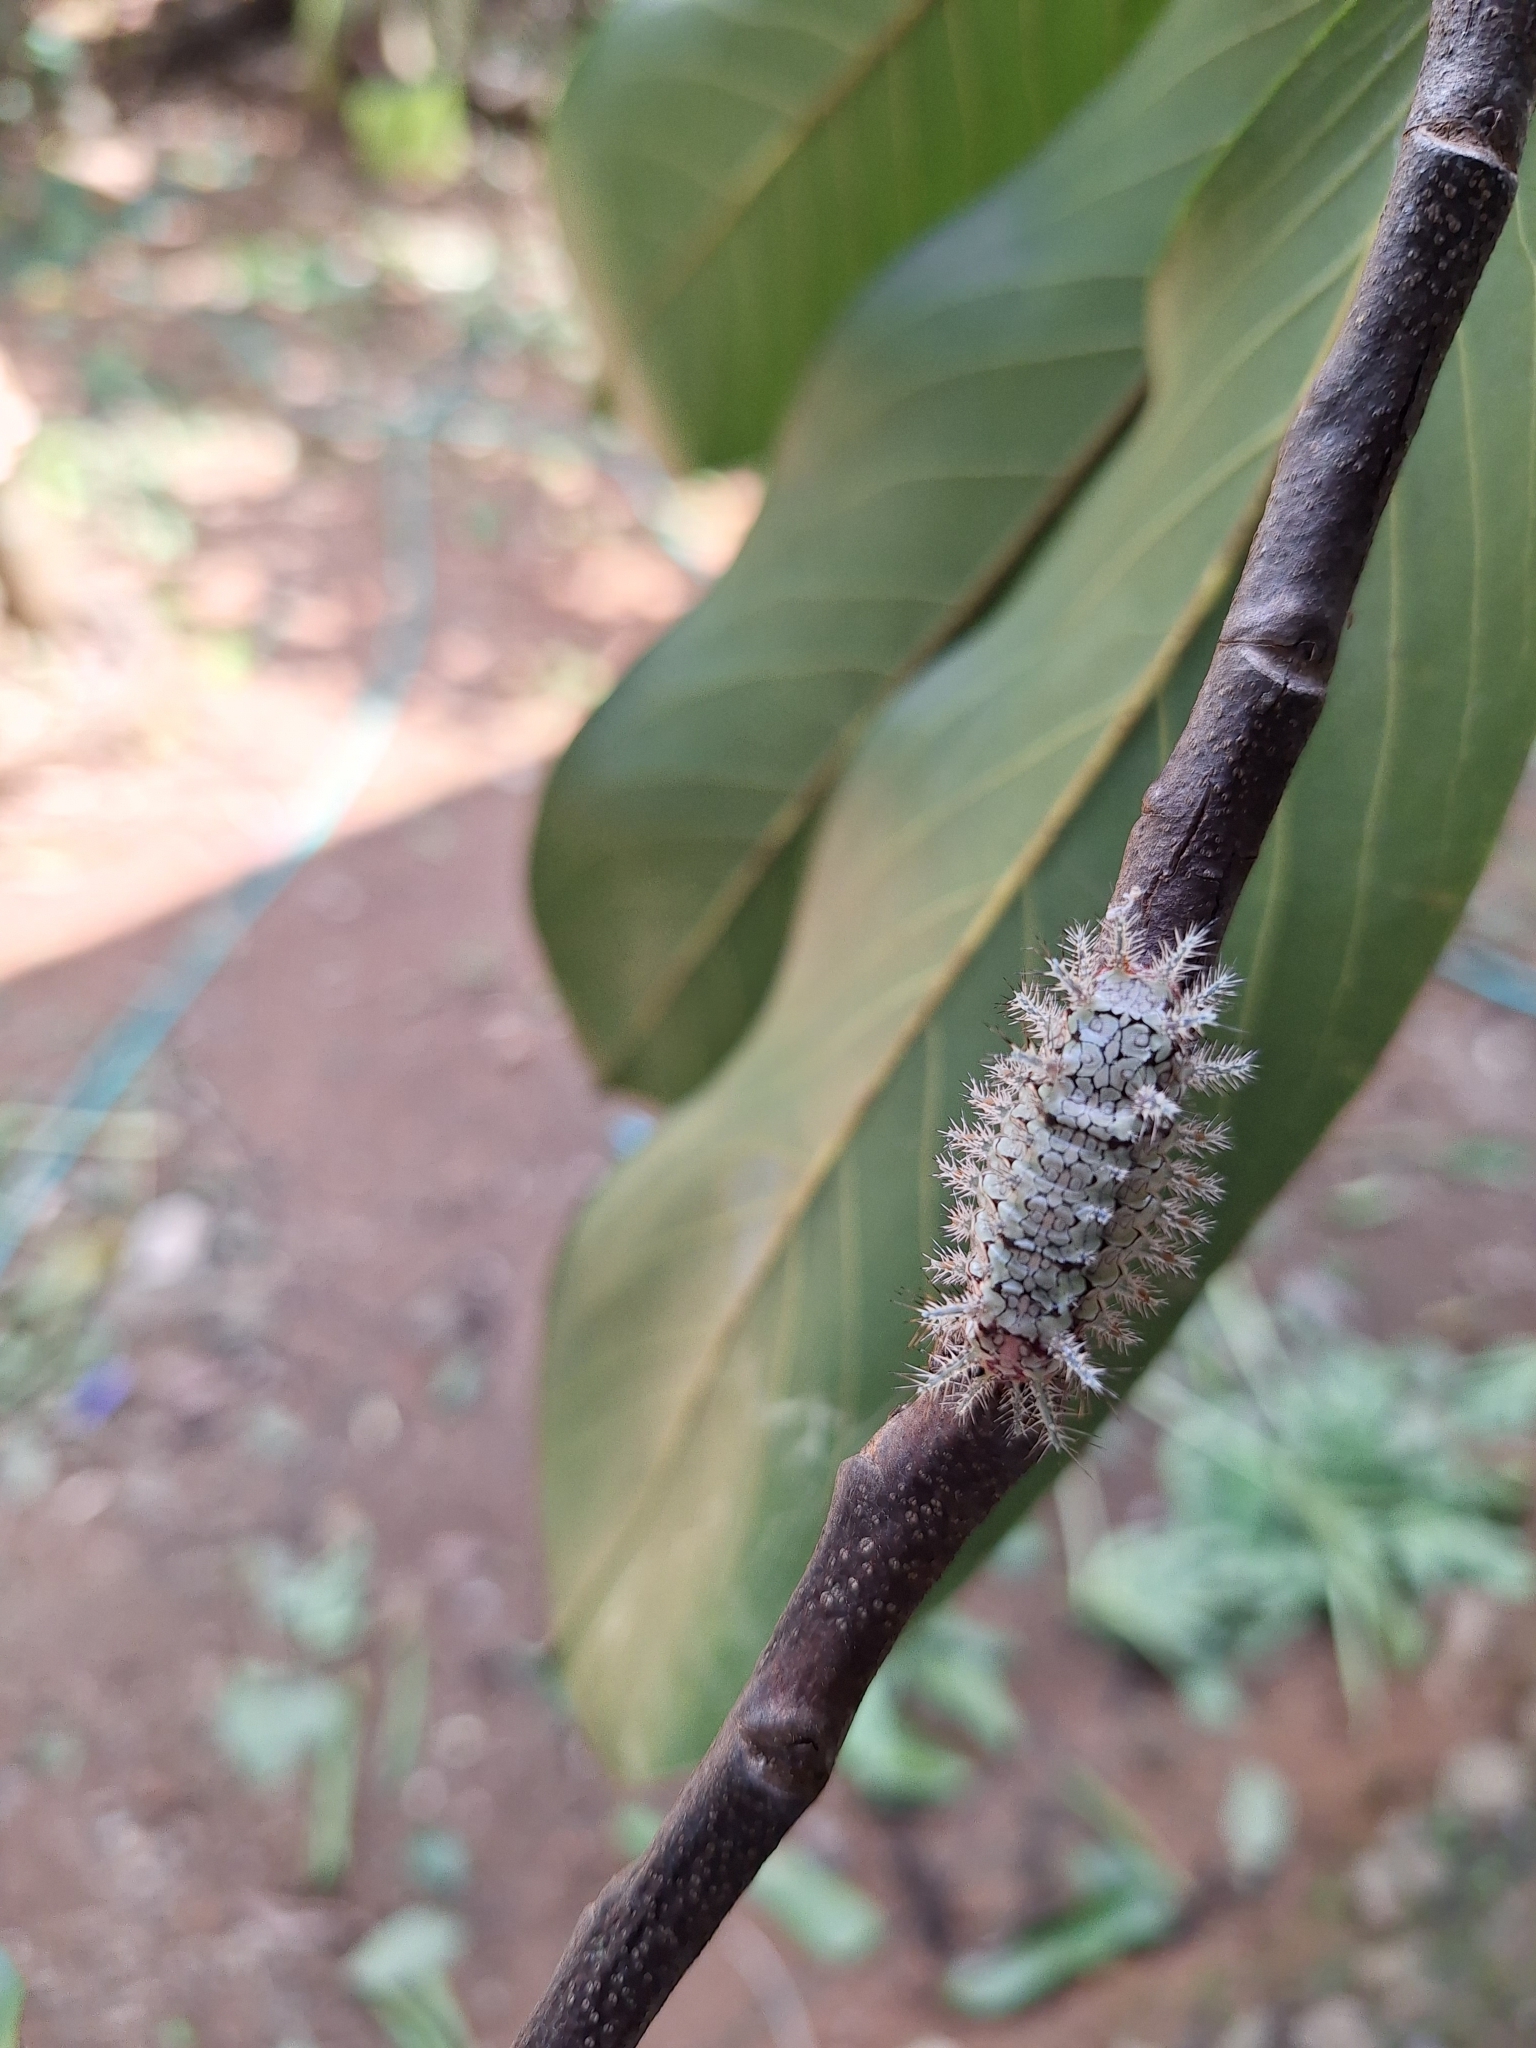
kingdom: Animalia
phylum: Arthropoda
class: Insecta
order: Lepidoptera
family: Limacodidae
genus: Euclea
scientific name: Euclea norba
